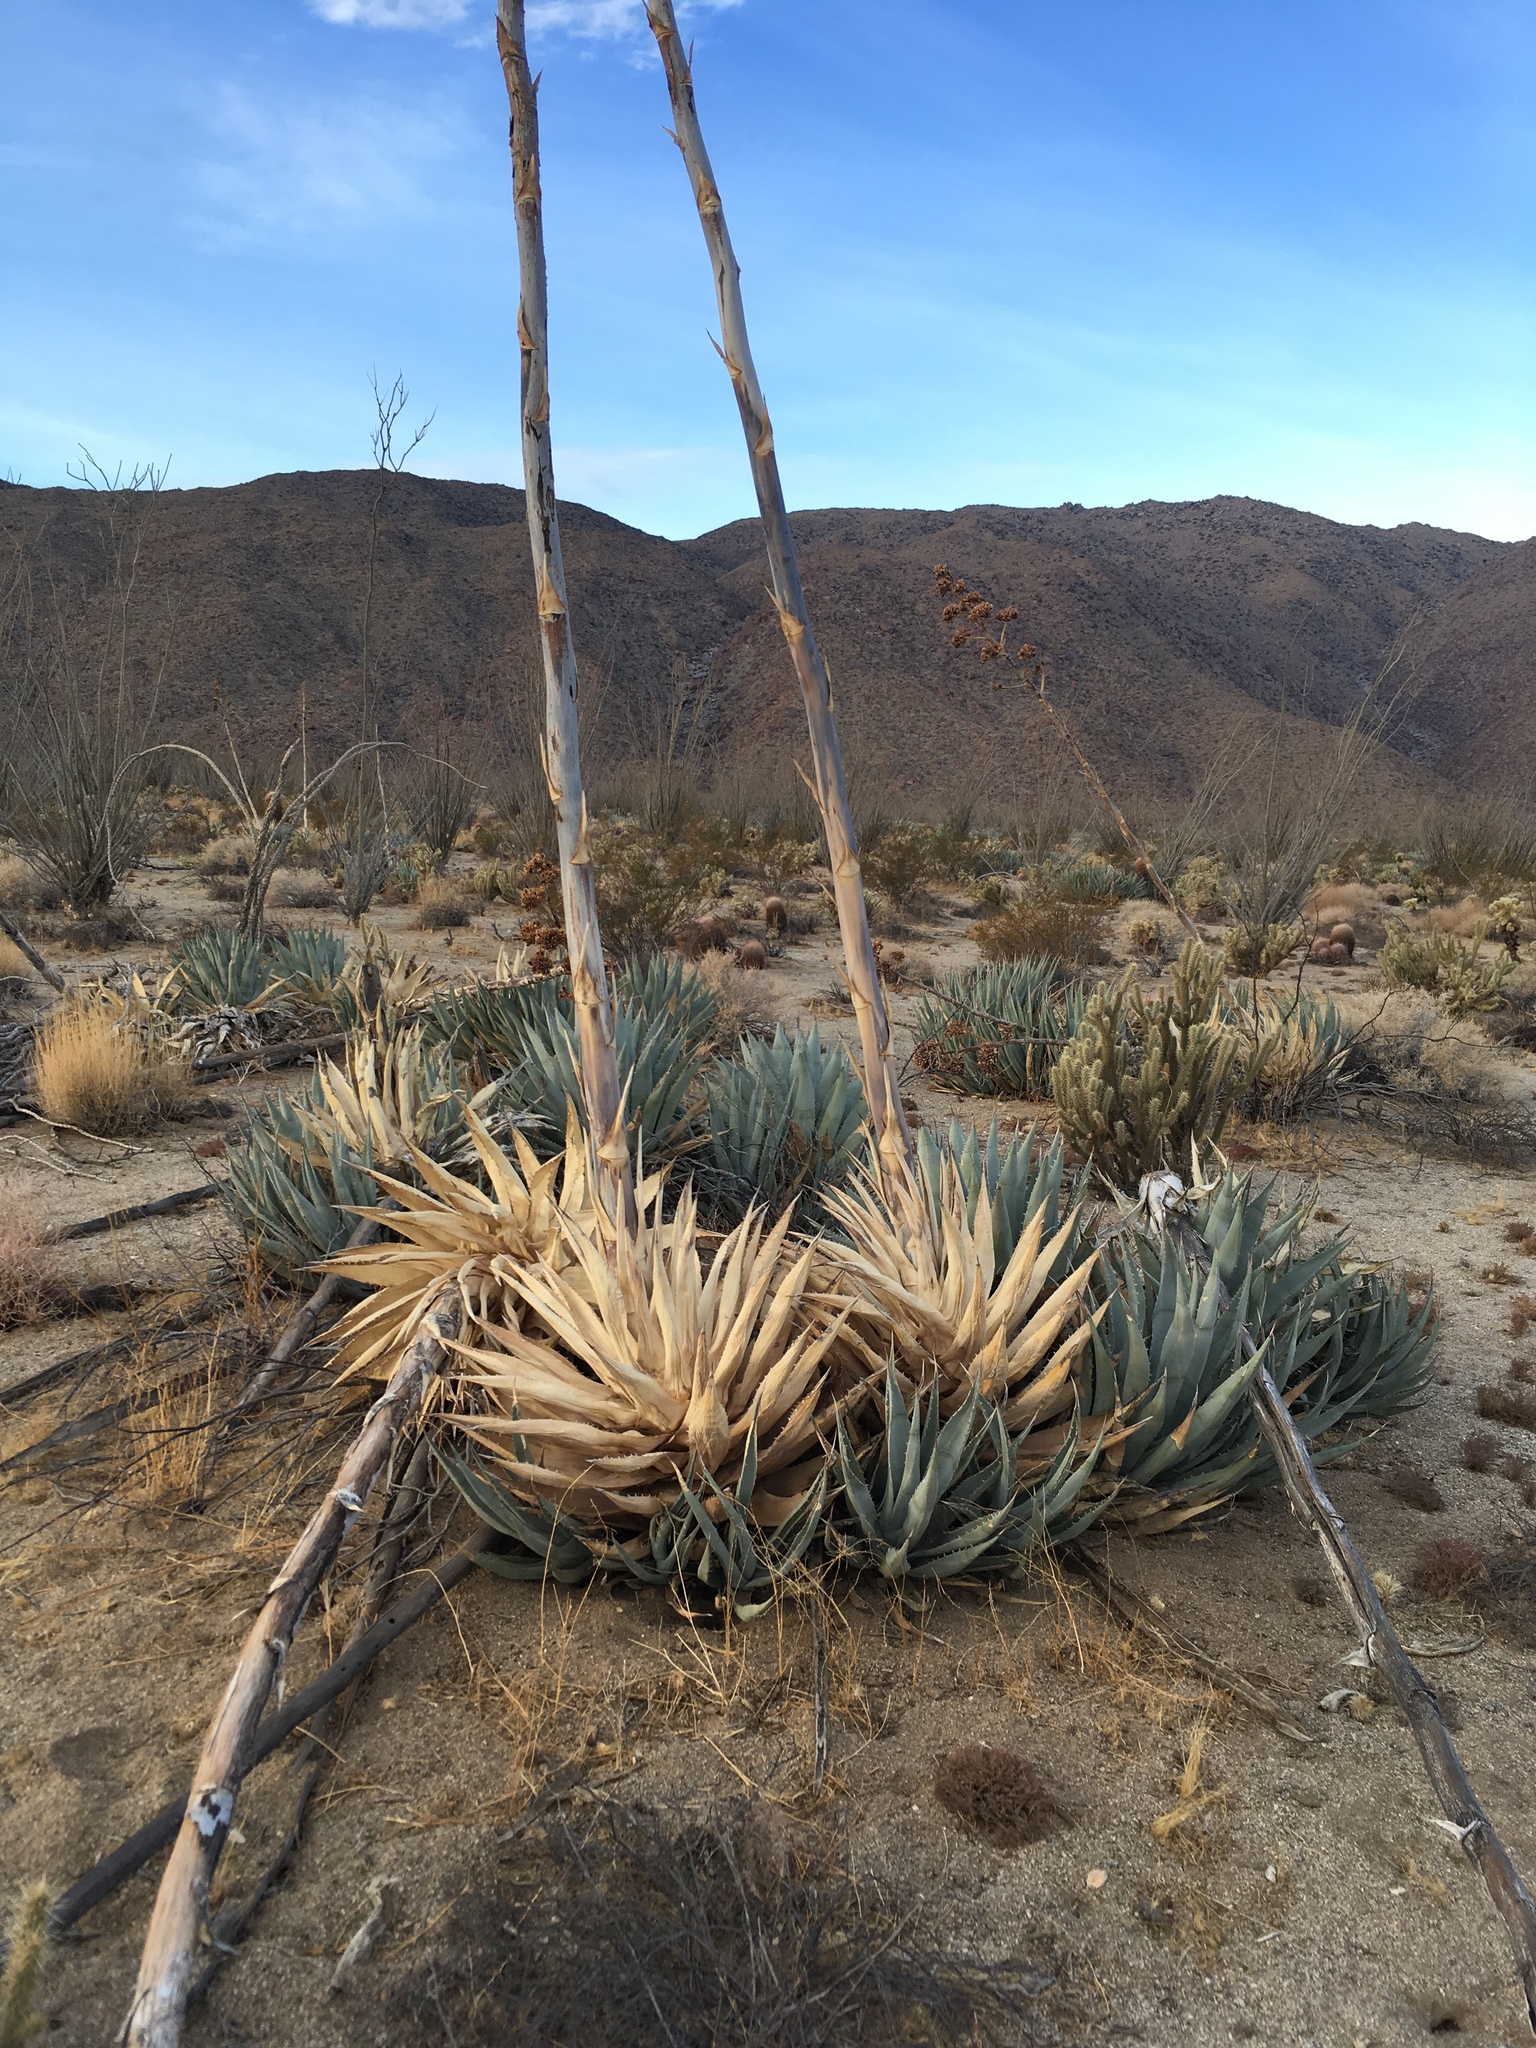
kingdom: Plantae
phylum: Tracheophyta
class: Liliopsida
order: Asparagales
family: Asparagaceae
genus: Agave
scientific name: Agave deserti
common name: Desert agave
